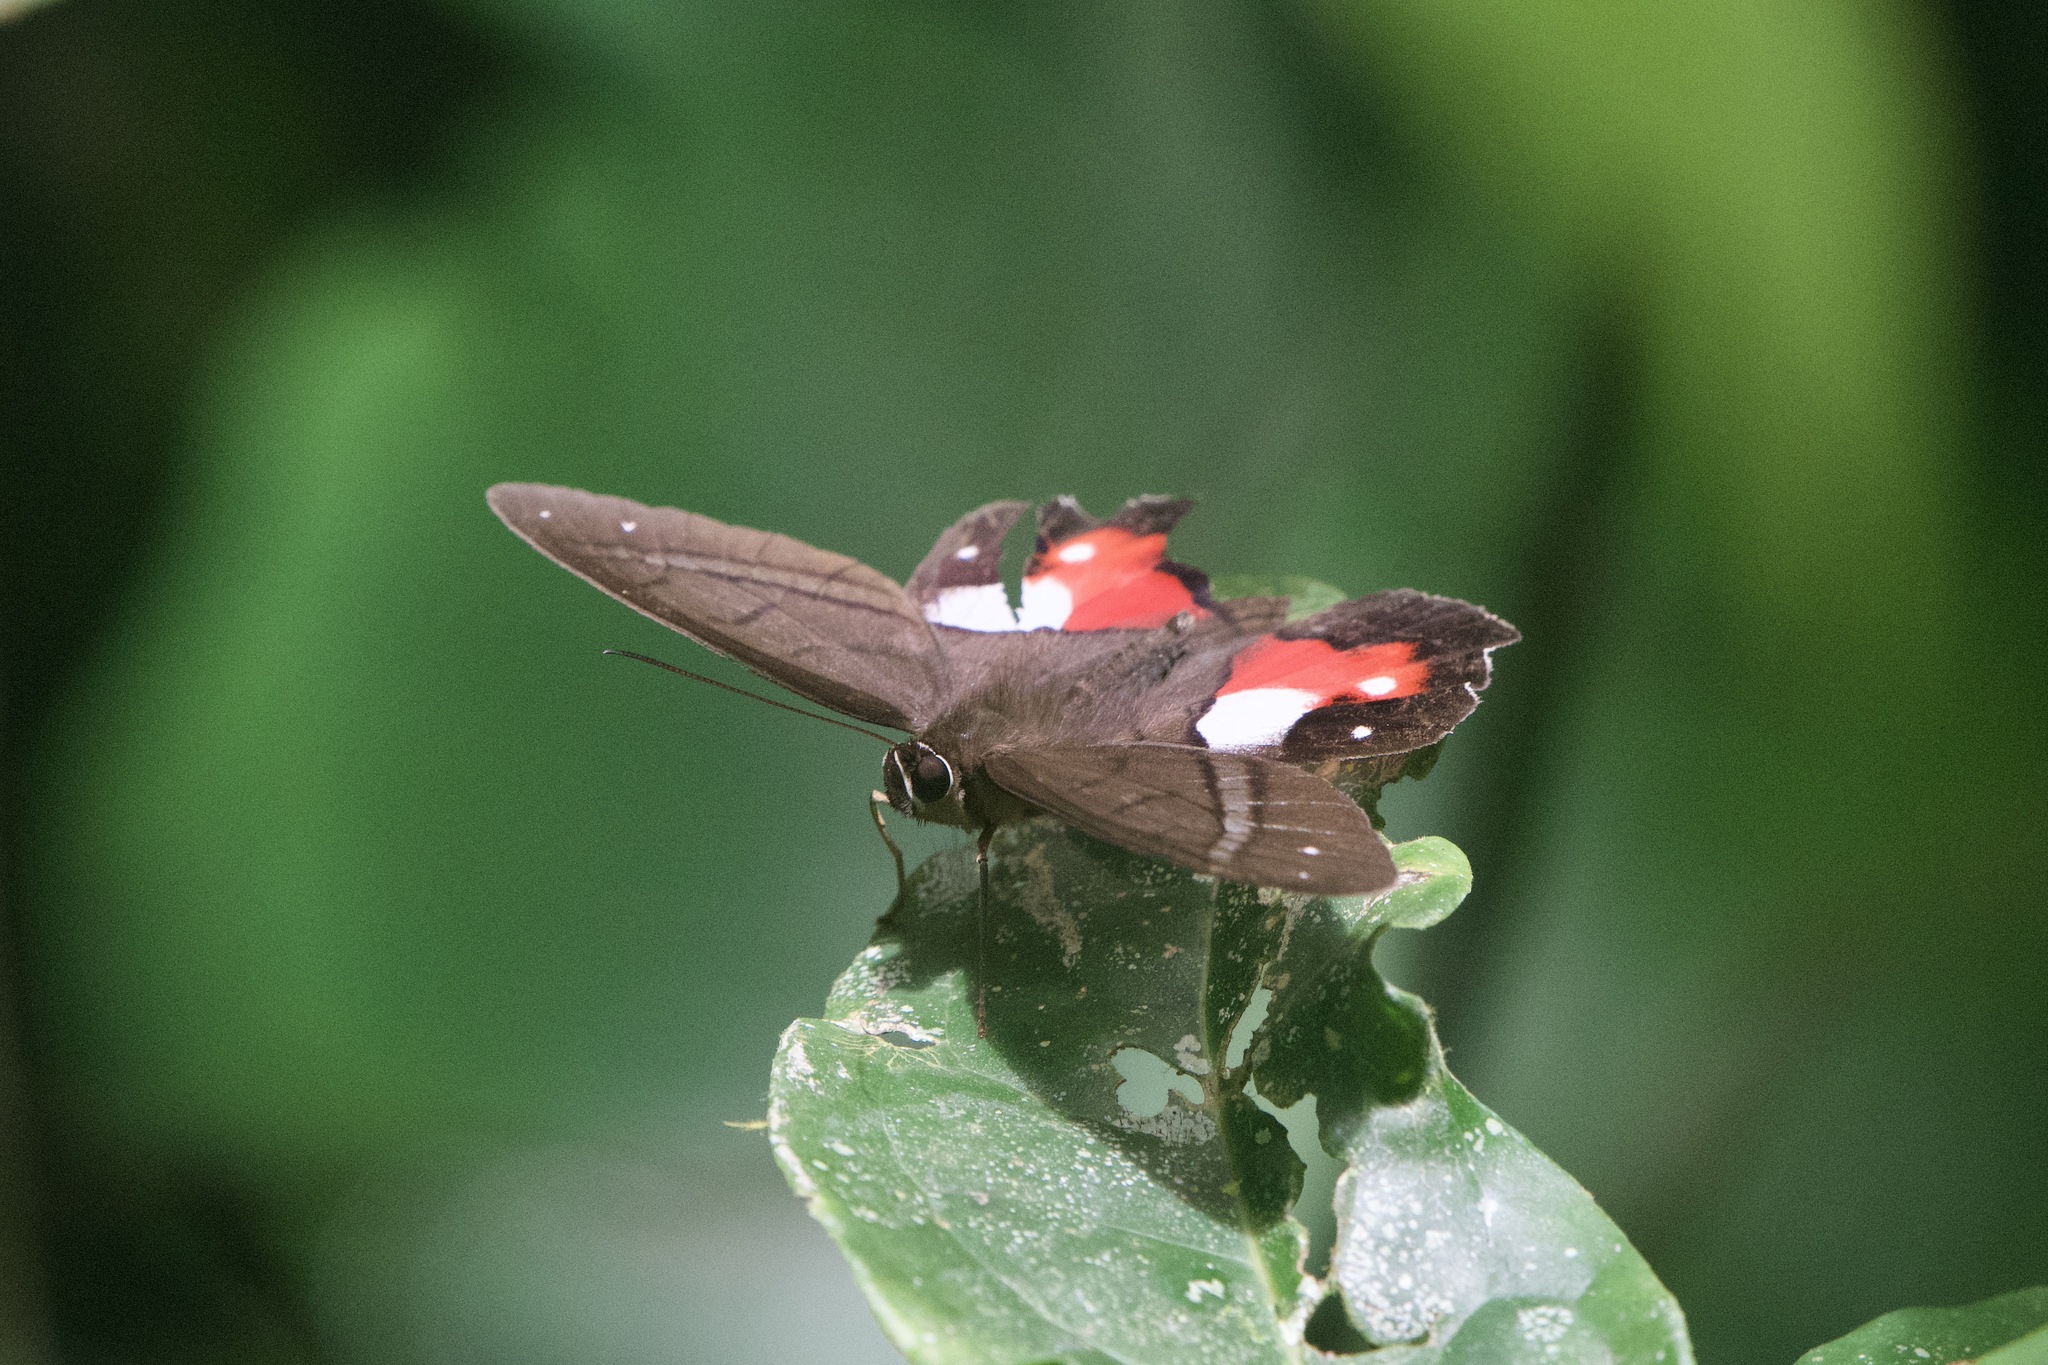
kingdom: Animalia
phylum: Arthropoda
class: Insecta
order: Lepidoptera
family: Nymphalidae
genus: Pierella
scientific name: Pierella helvina
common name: Red-washed satyr
